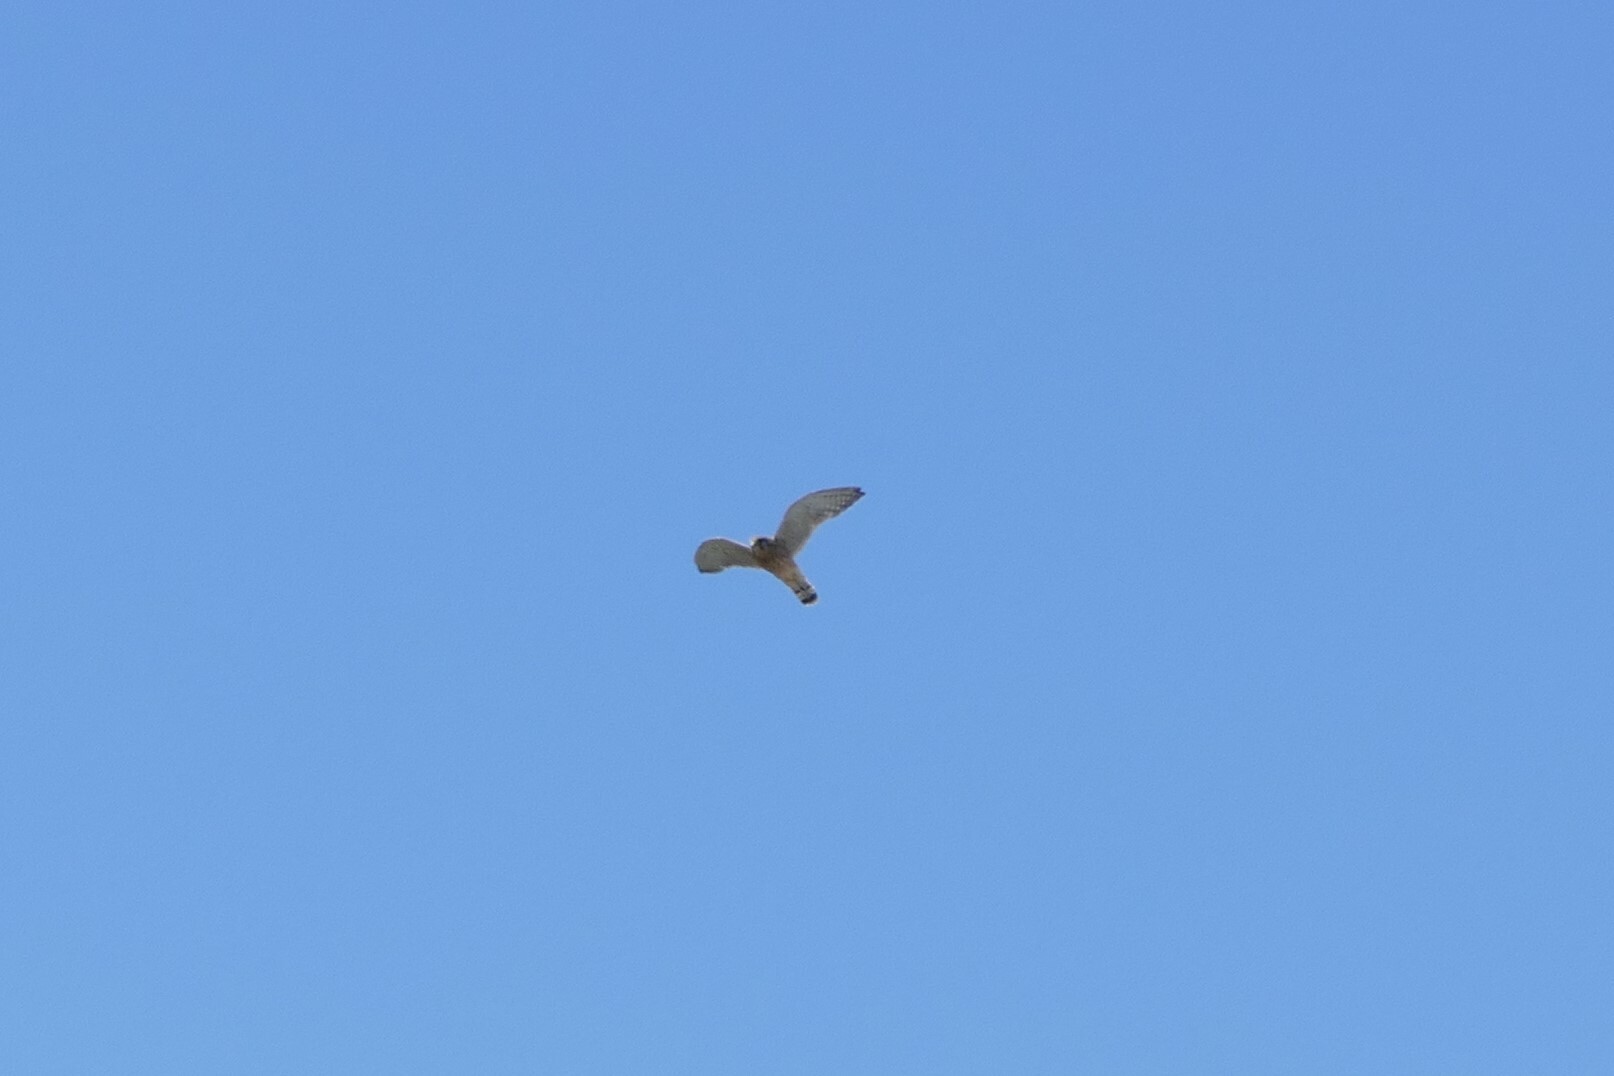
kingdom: Animalia
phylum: Chordata
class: Aves
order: Falconiformes
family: Falconidae
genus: Falco
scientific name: Falco tinnunculus
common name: Common kestrel
